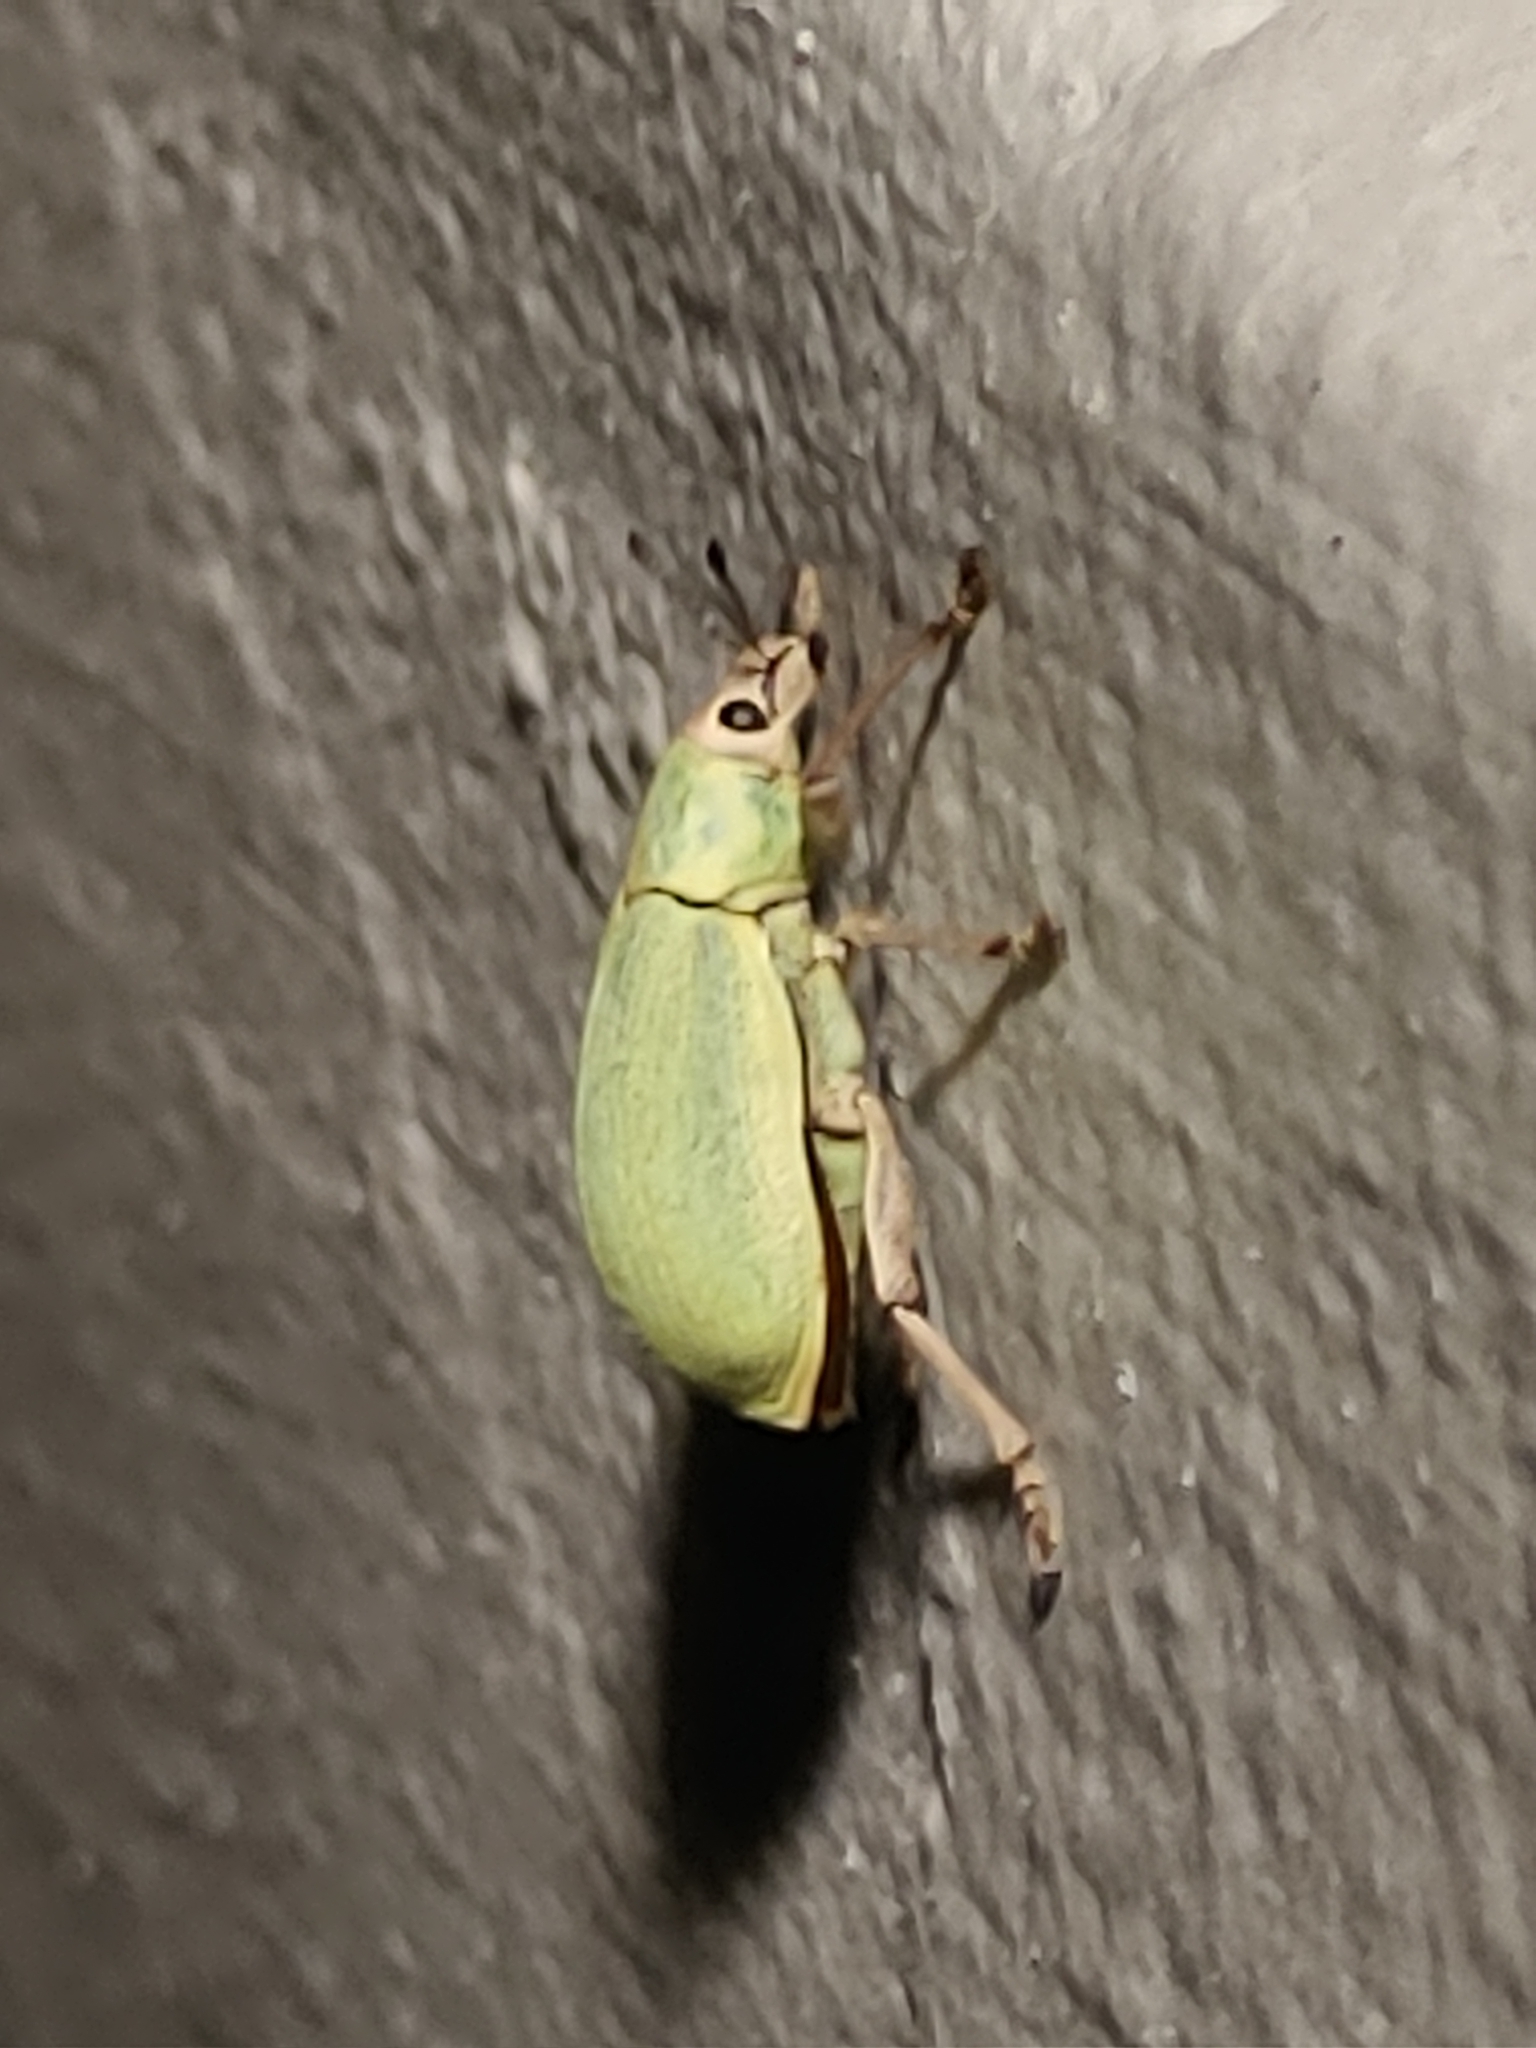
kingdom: Animalia
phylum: Arthropoda
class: Insecta
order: Coleoptera
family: Curculionidae
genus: Pachnaeus
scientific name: Pachnaeus litus
